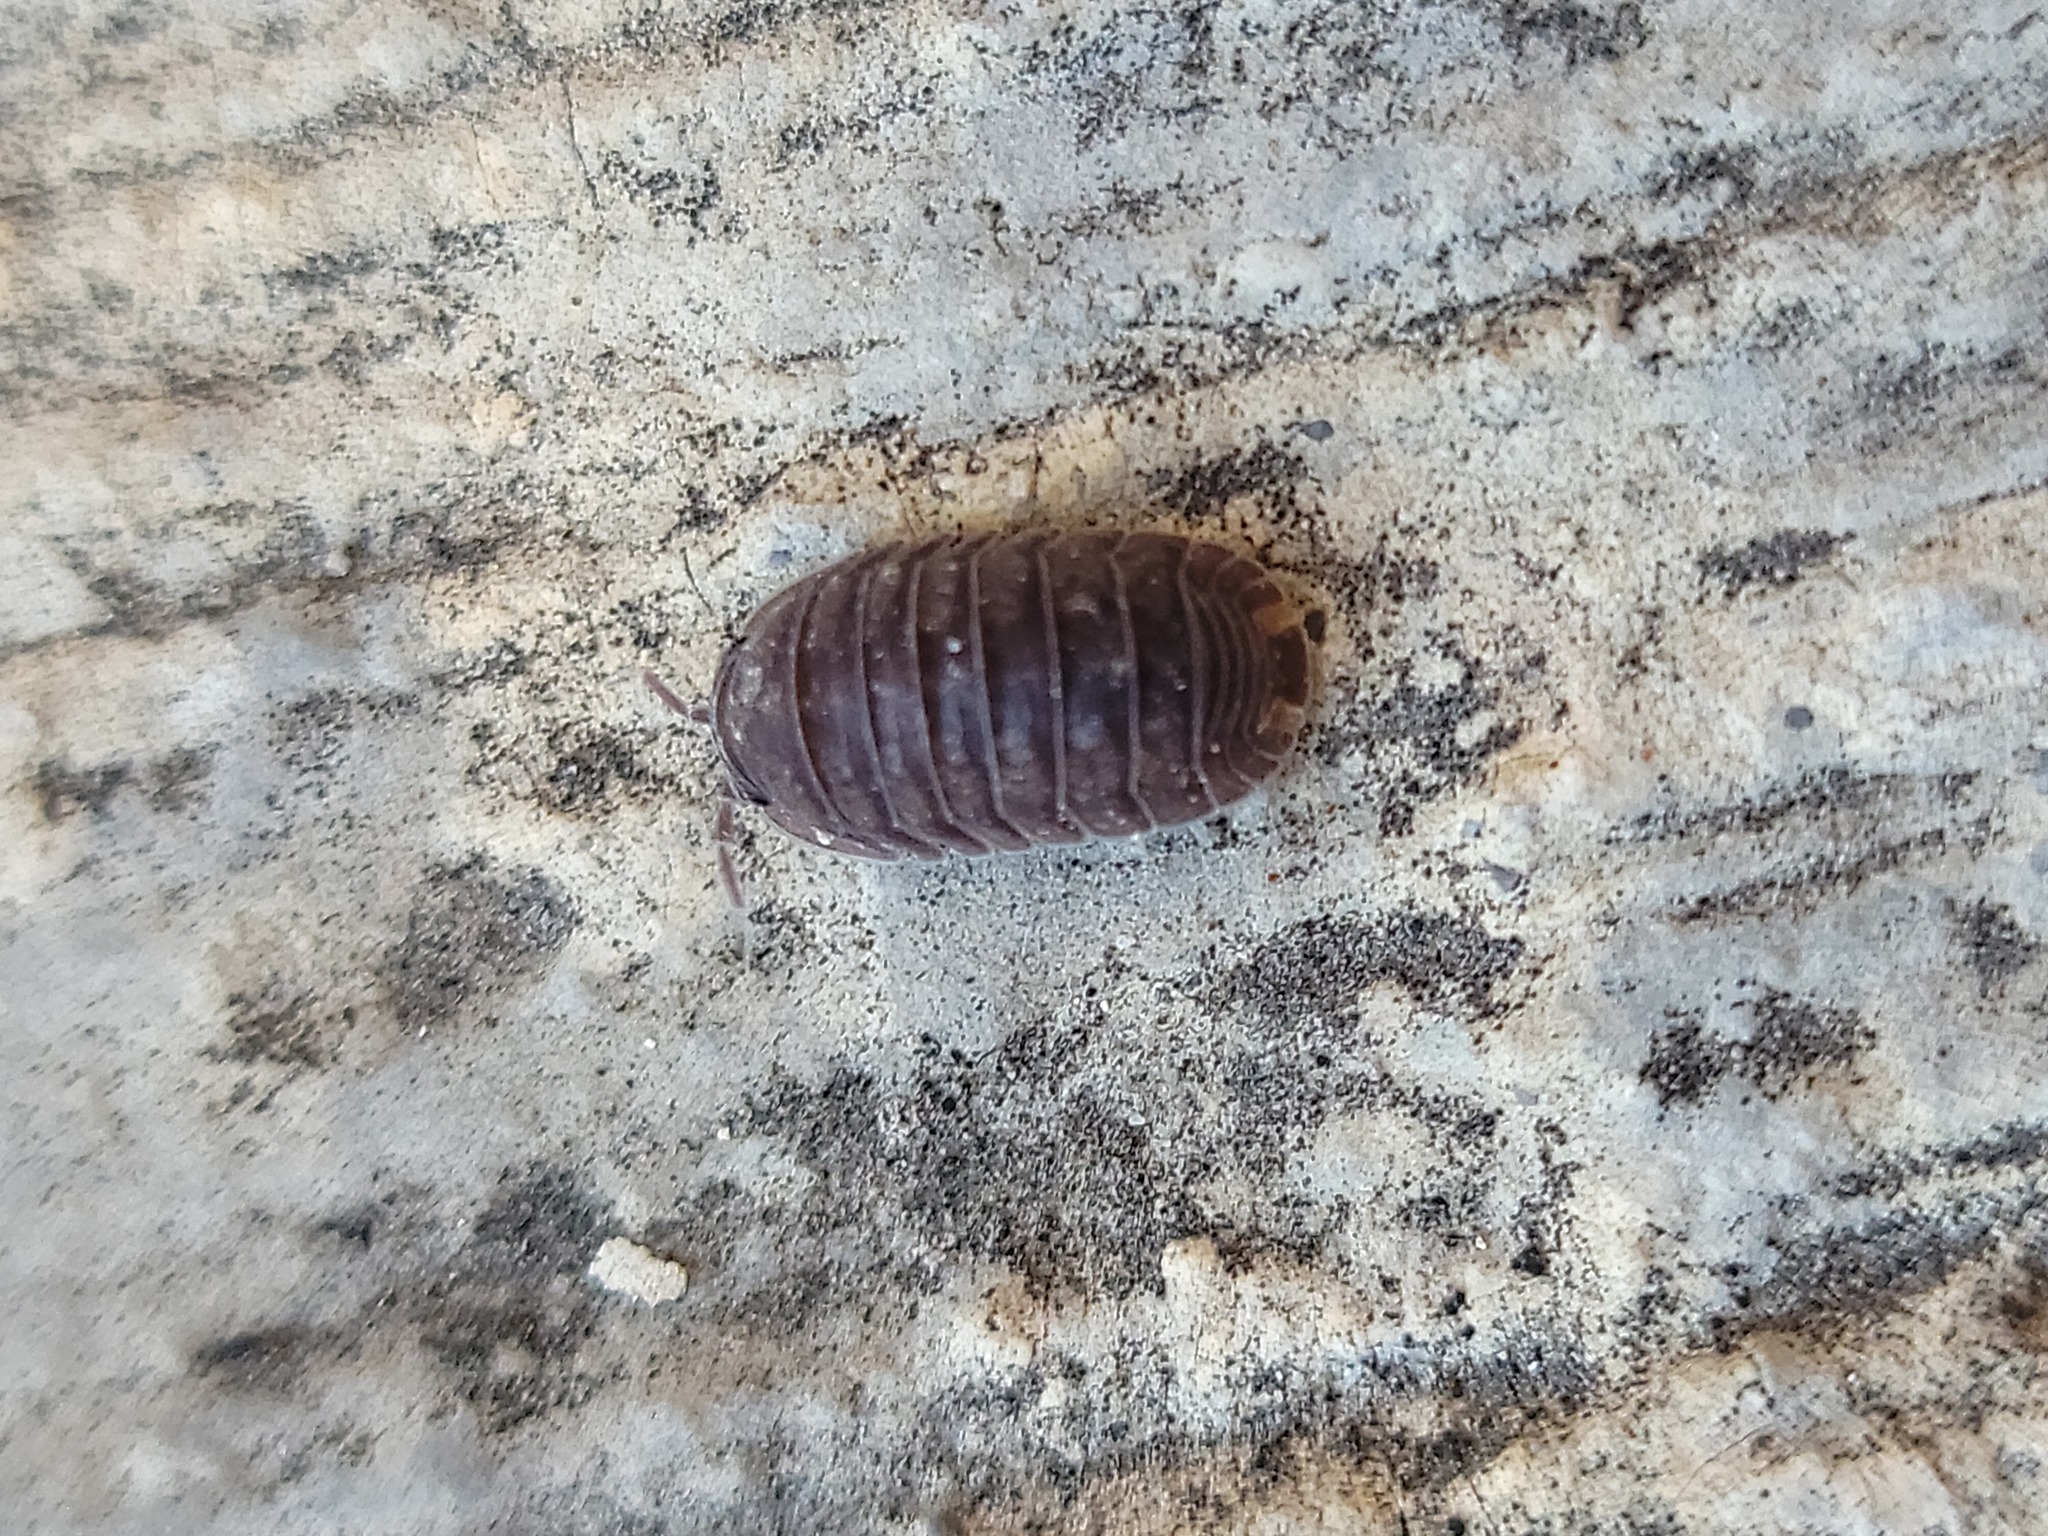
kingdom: Animalia
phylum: Arthropoda
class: Malacostraca
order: Isopoda
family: Armadillidae
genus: Cubaris
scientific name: Cubaris murina
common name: Pillbug
